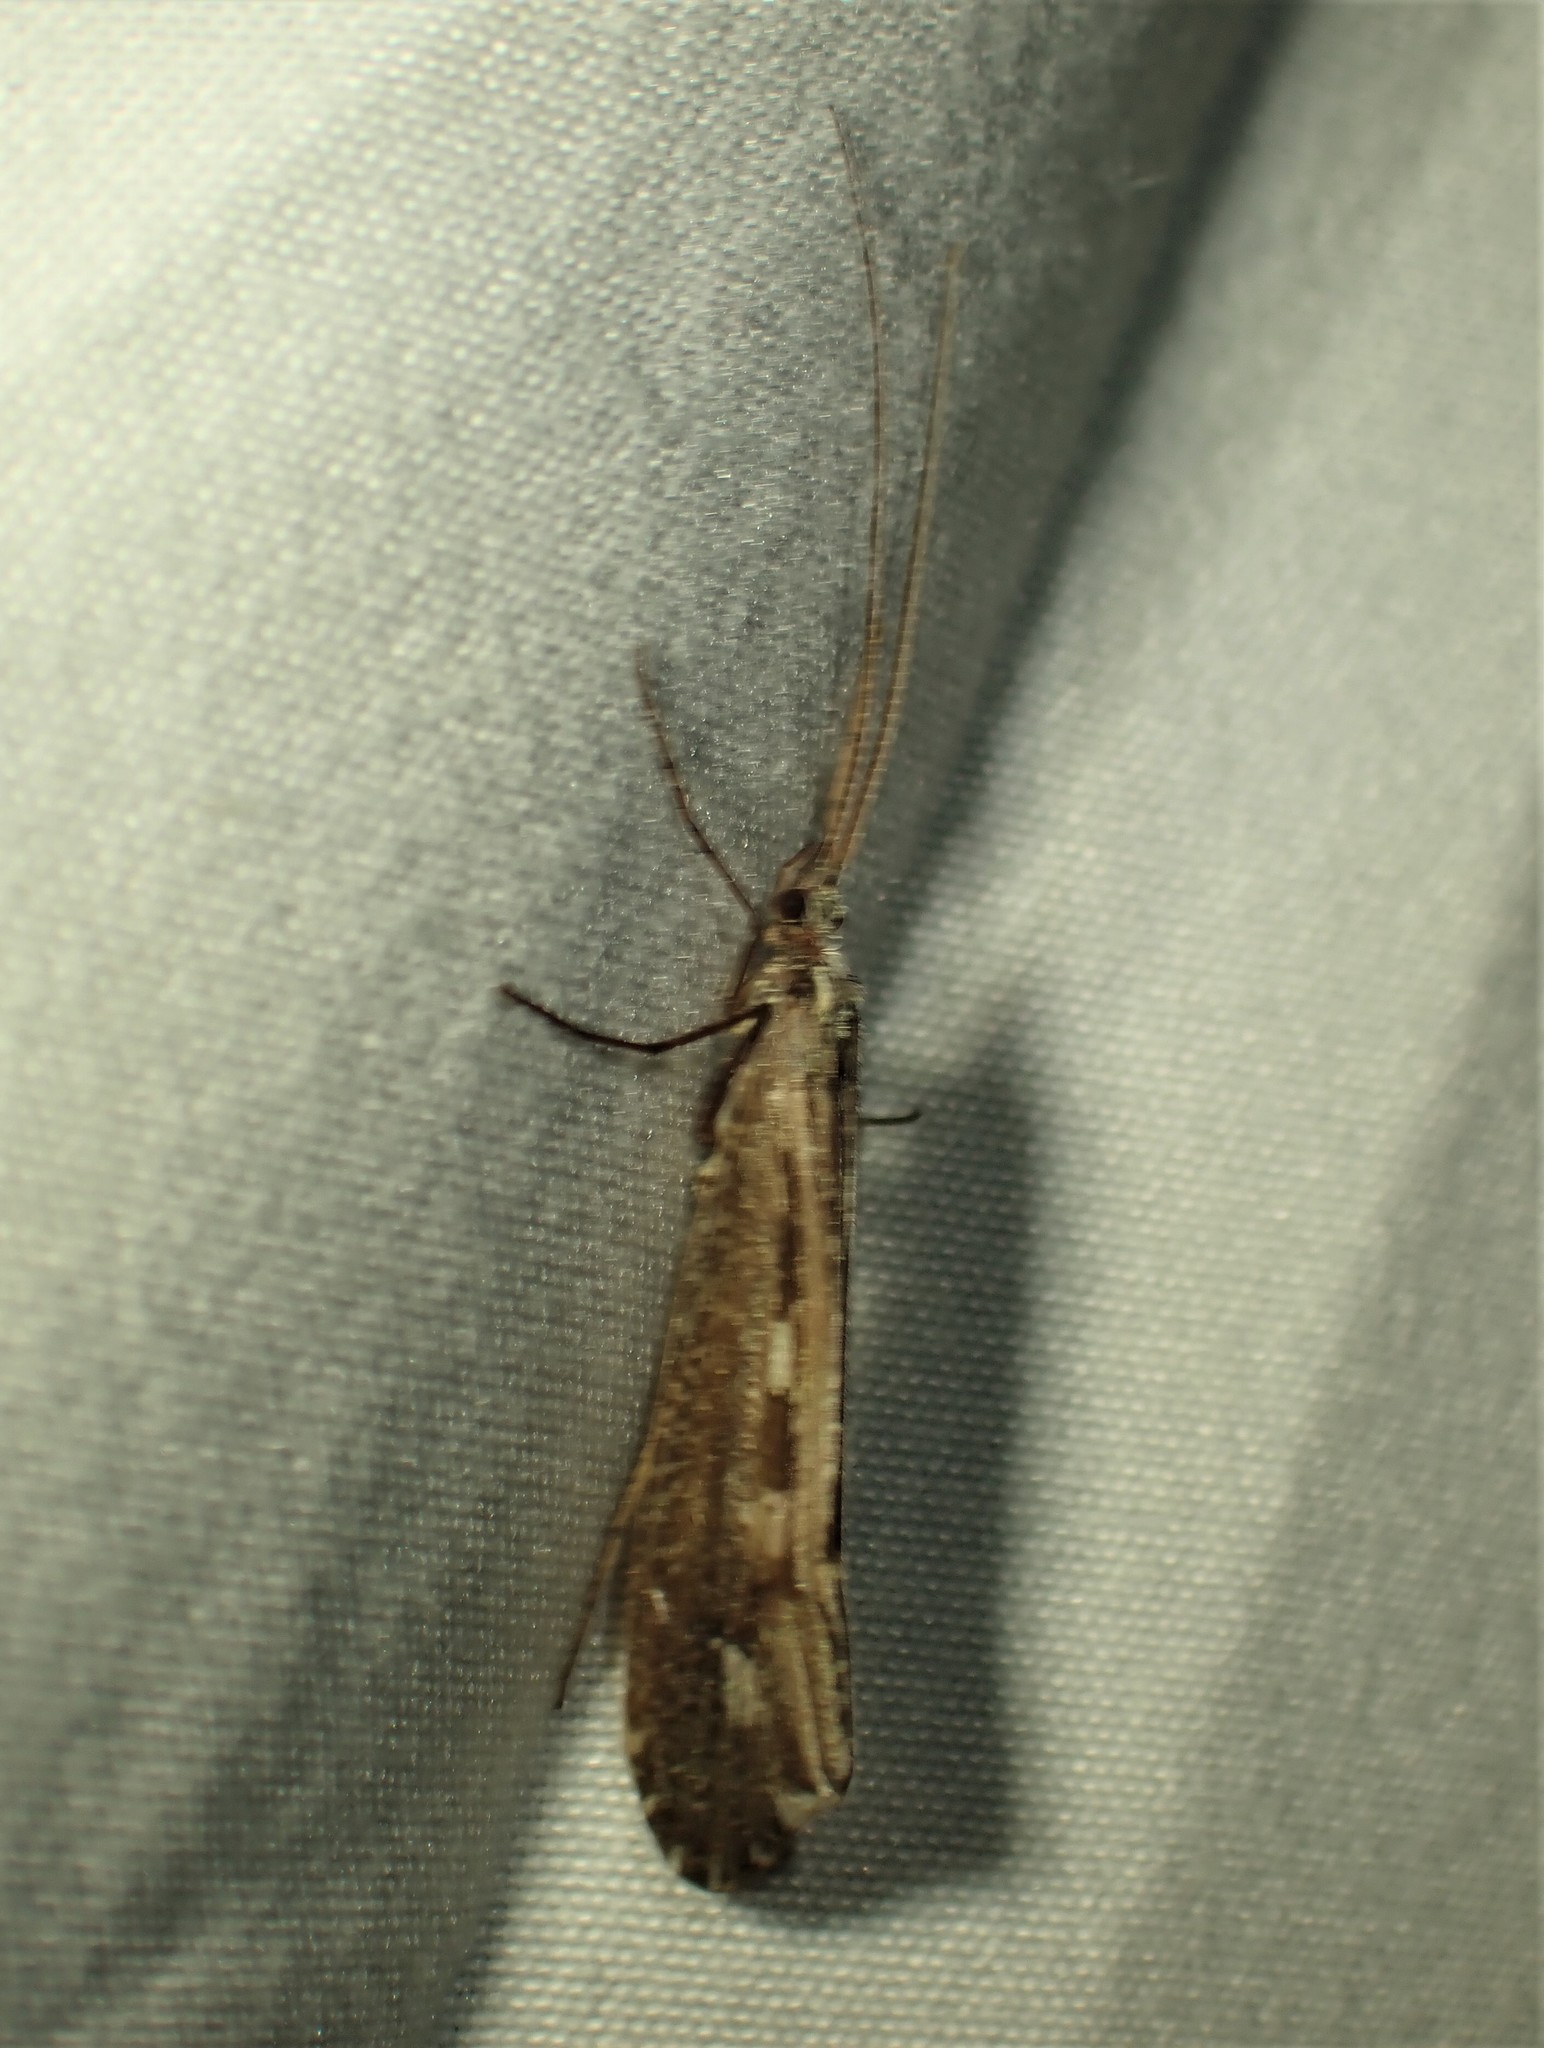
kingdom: Animalia
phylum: Arthropoda
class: Insecta
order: Trichoptera
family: Limnephilidae
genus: Glyphopsyche
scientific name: Glyphopsyche irrorata
